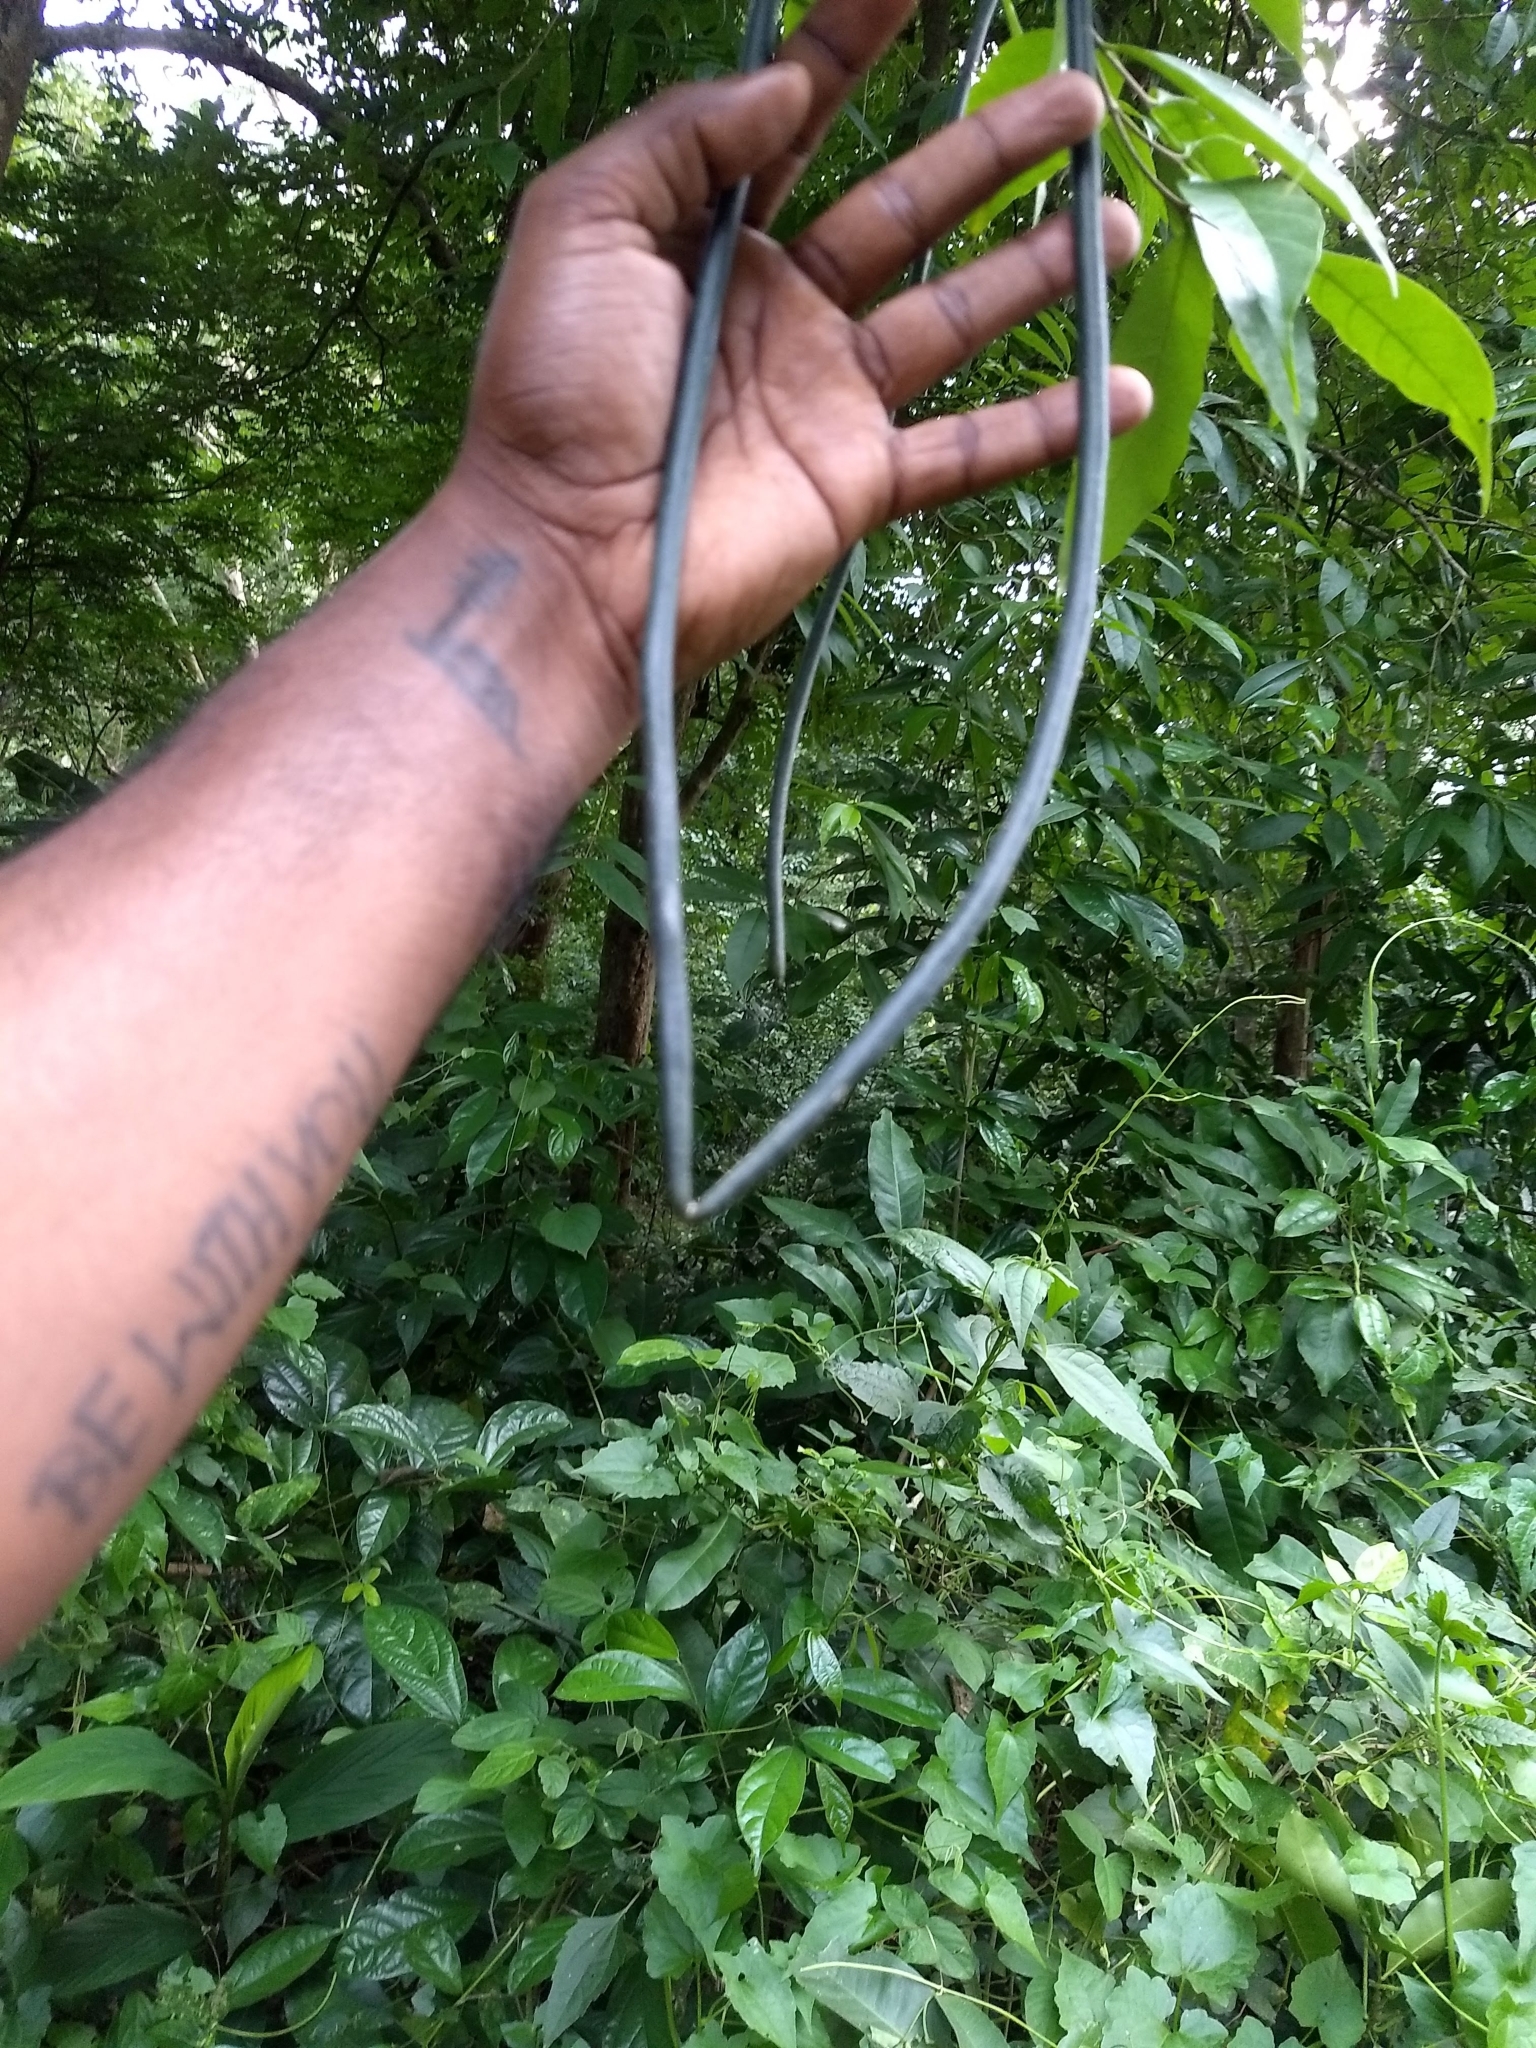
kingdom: Plantae
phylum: Tracheophyta
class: Magnoliopsida
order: Gentianales
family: Apocynaceae
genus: Wrightia
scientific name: Wrightia tinctoria
